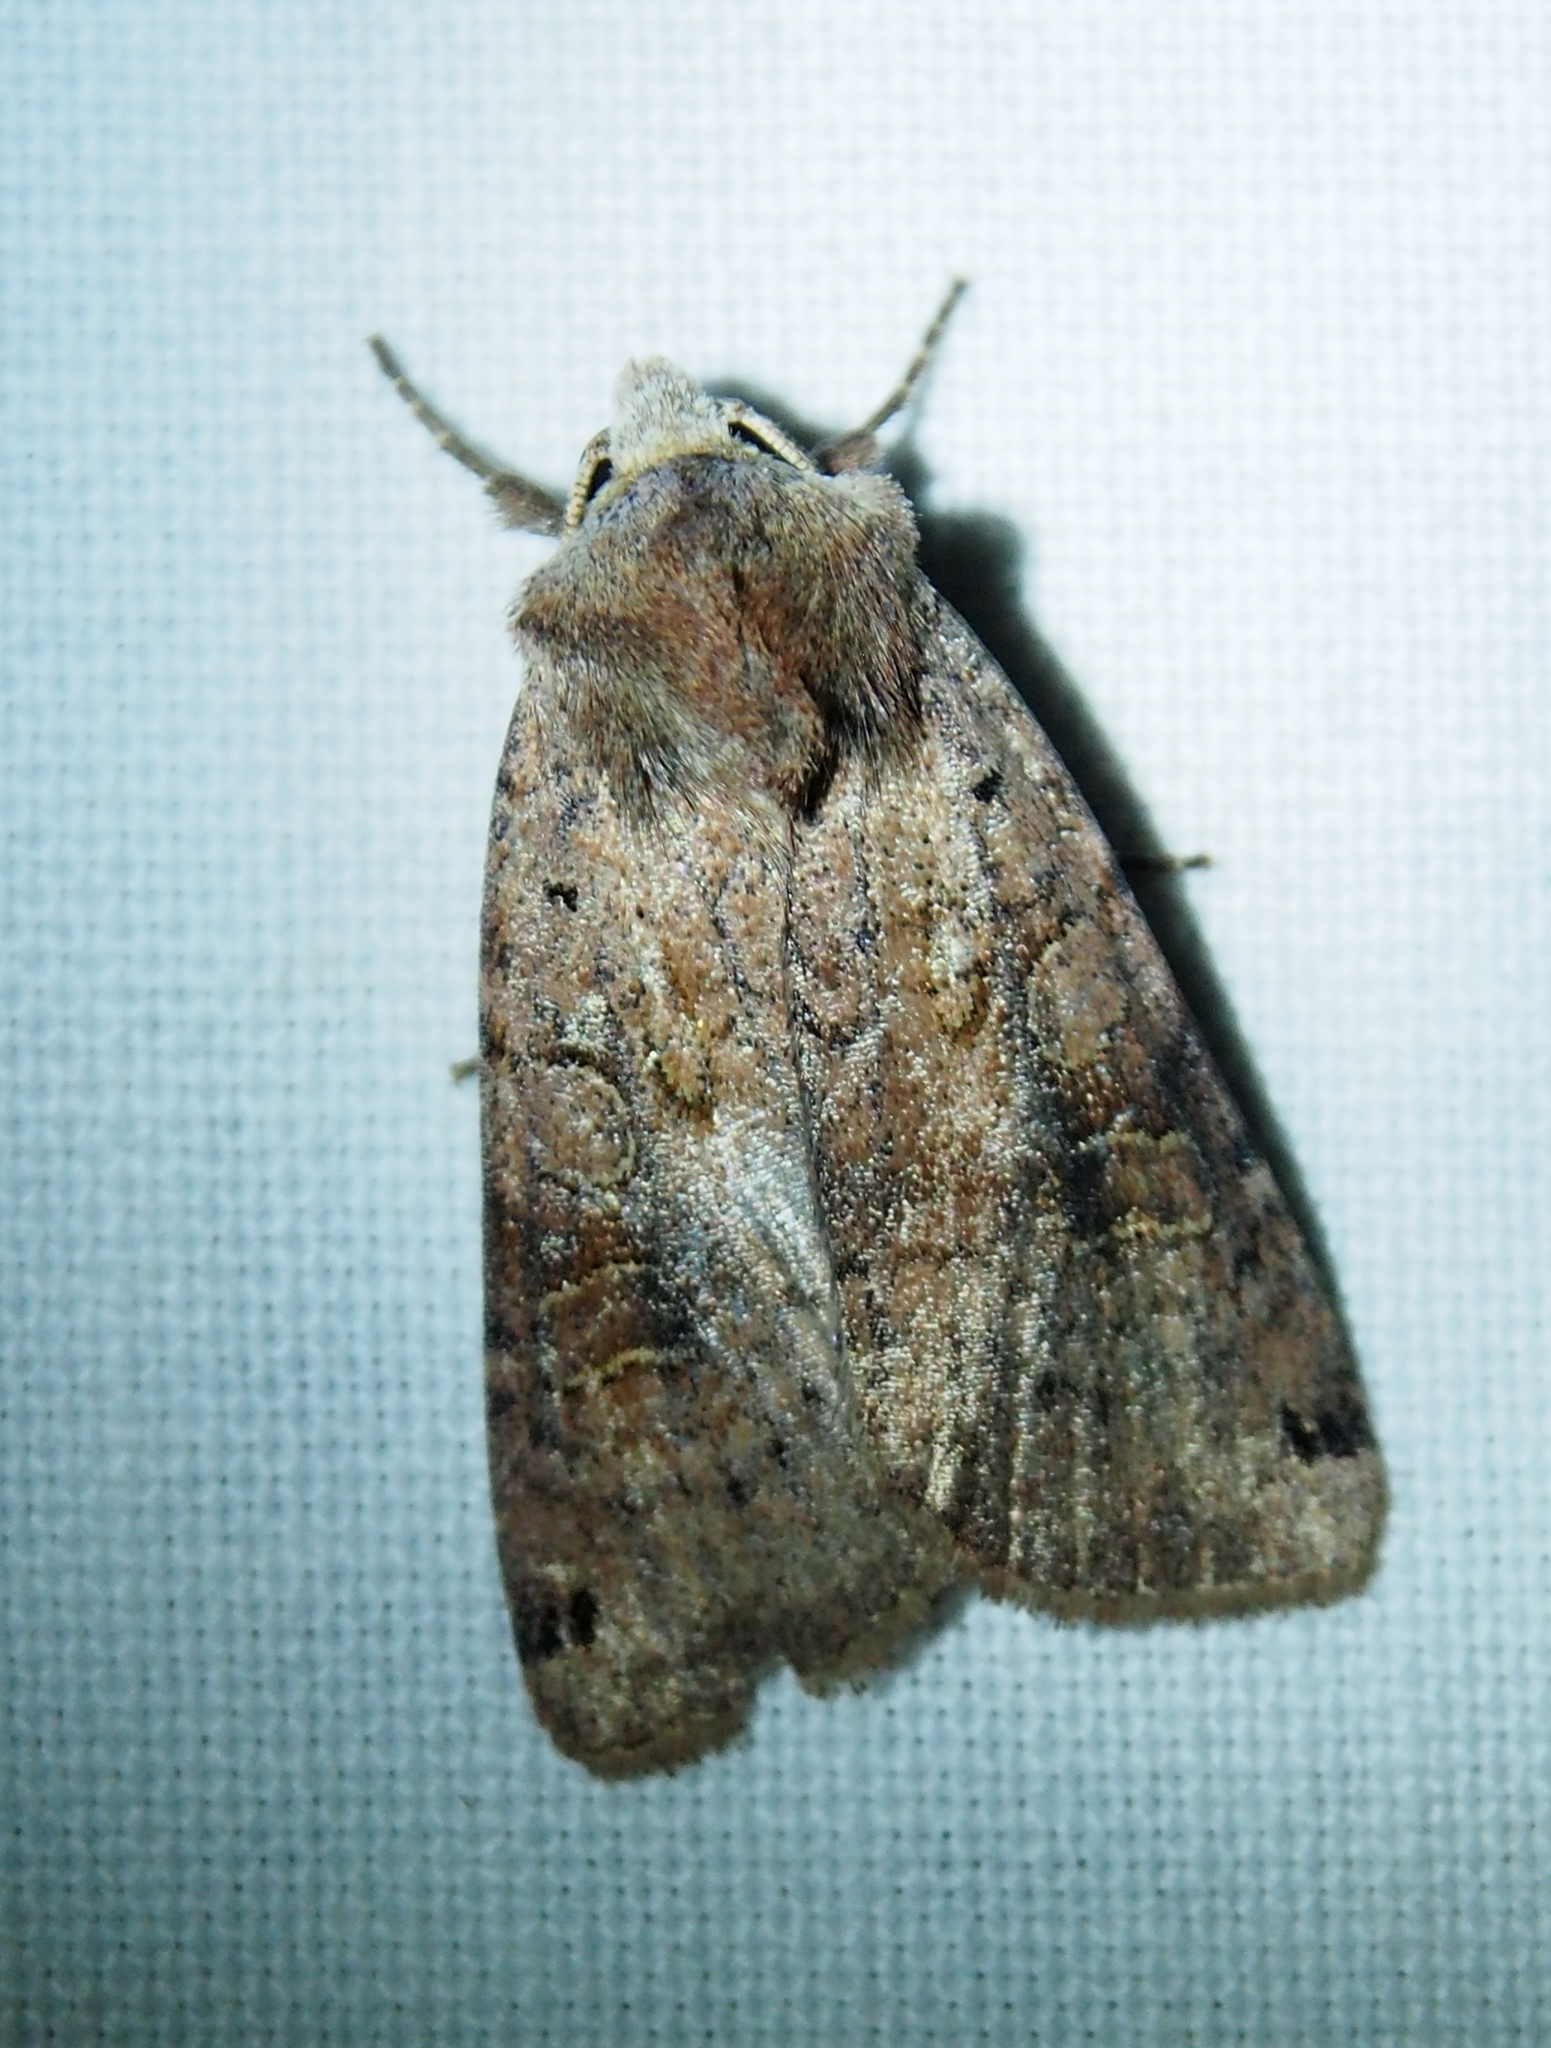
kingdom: Animalia
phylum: Arthropoda
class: Insecta
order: Lepidoptera
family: Noctuidae
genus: Xestia
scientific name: Xestia baja
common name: Dotted clay
